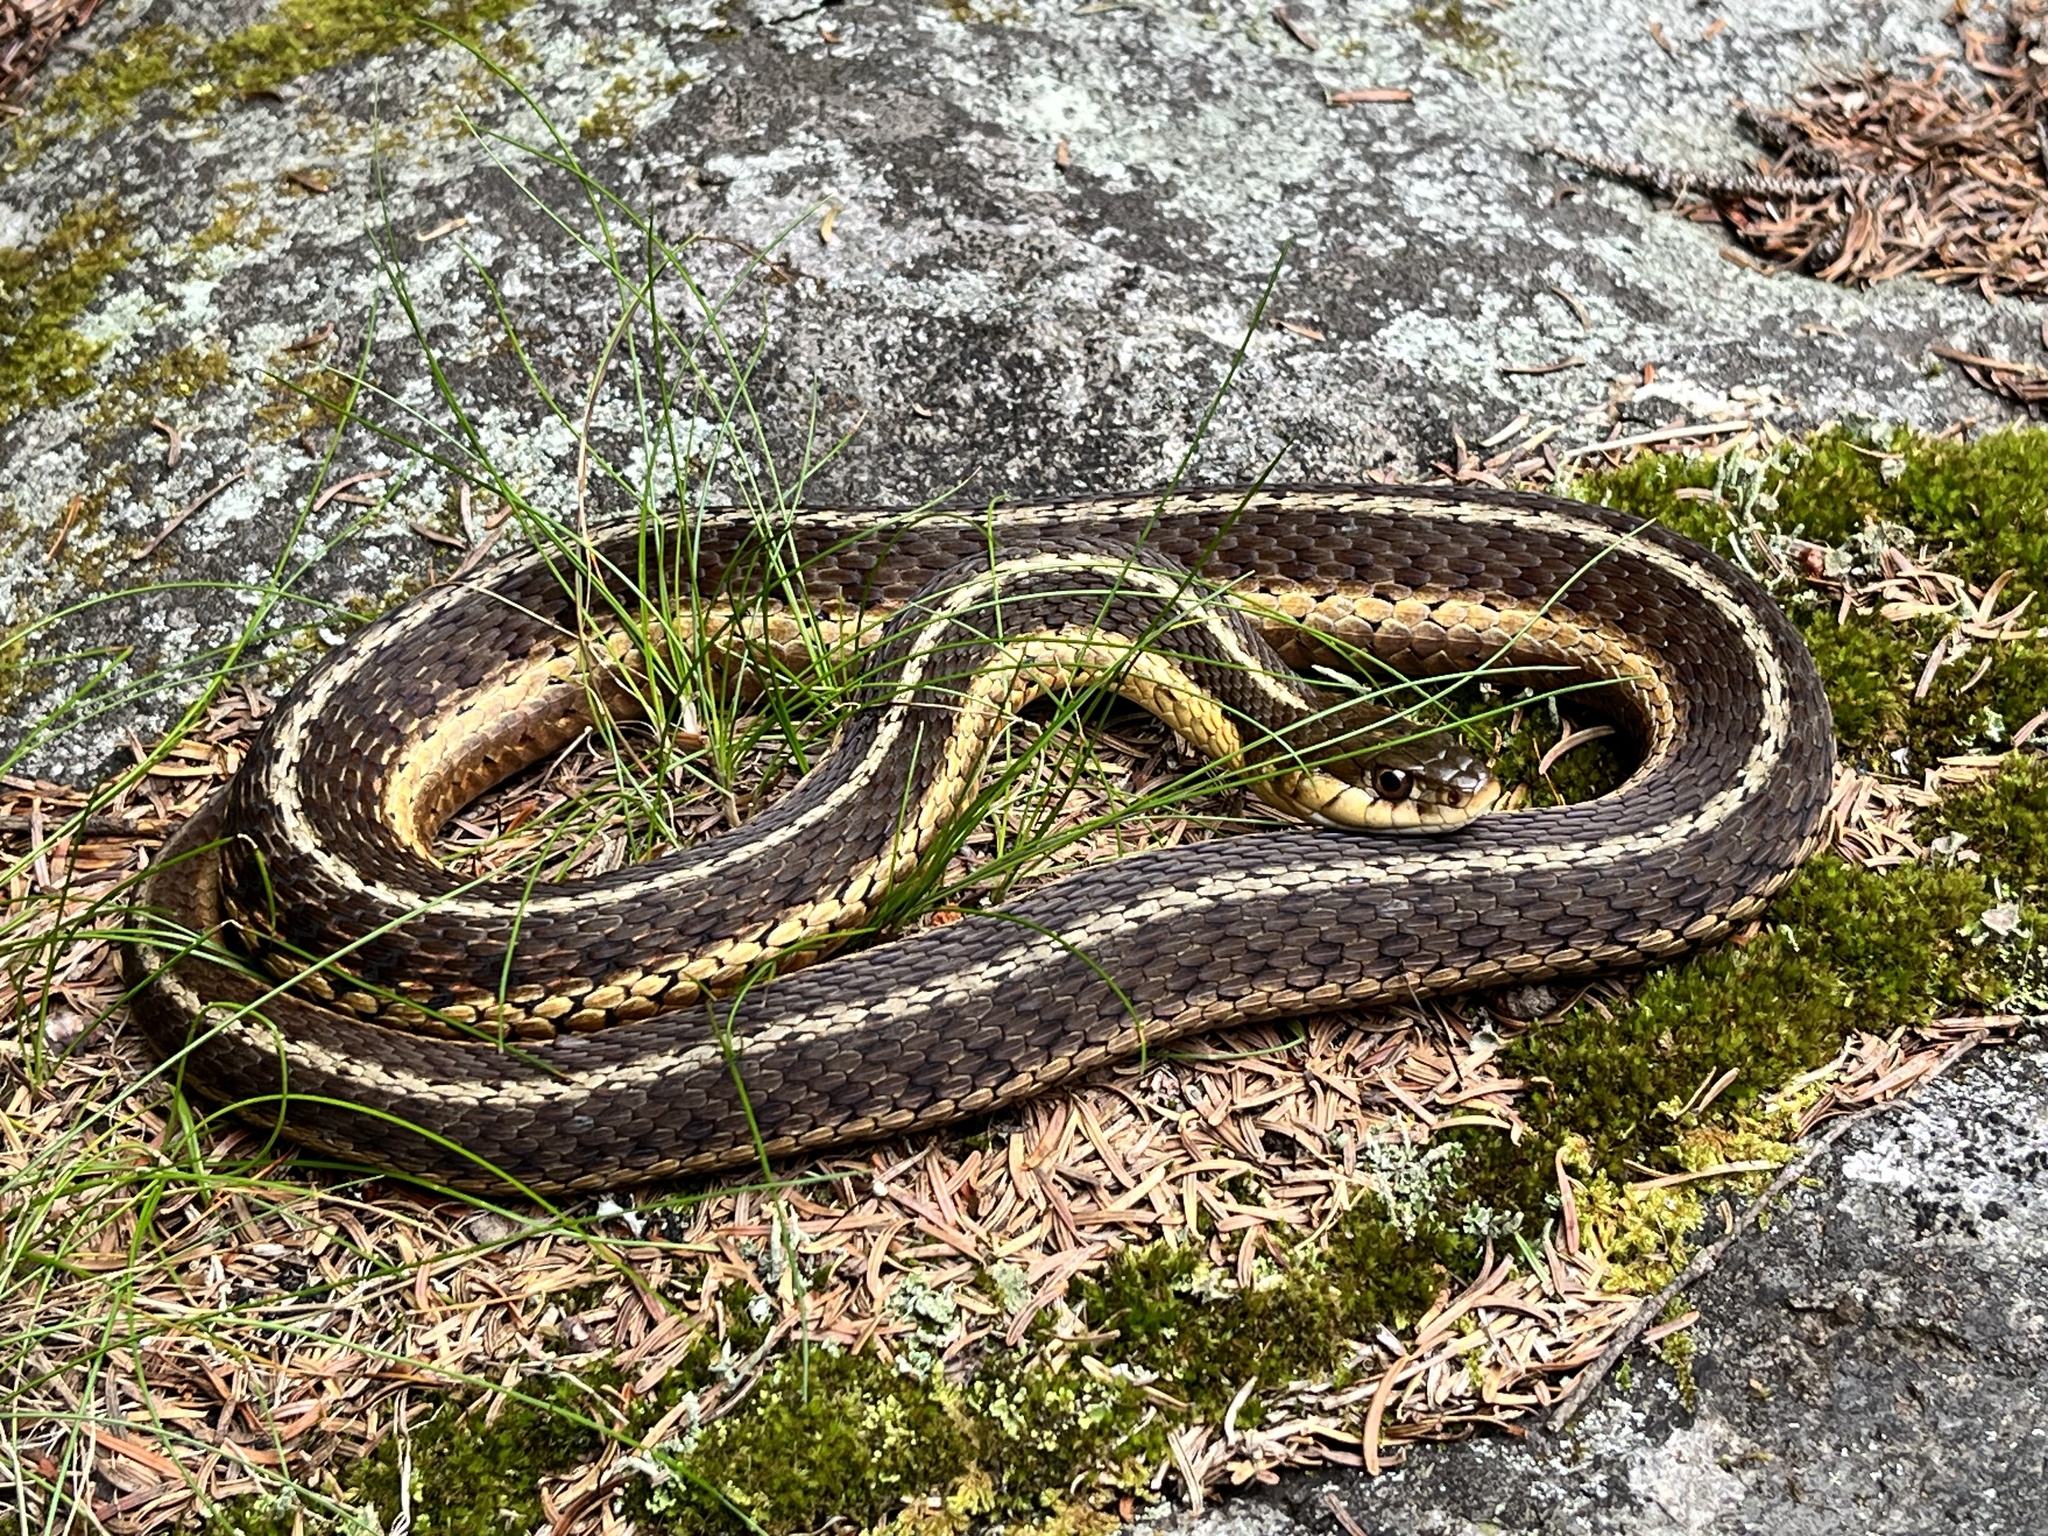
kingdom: Animalia
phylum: Chordata
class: Squamata
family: Colubridae
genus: Thamnophis
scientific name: Thamnophis sirtalis
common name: Common garter snake
